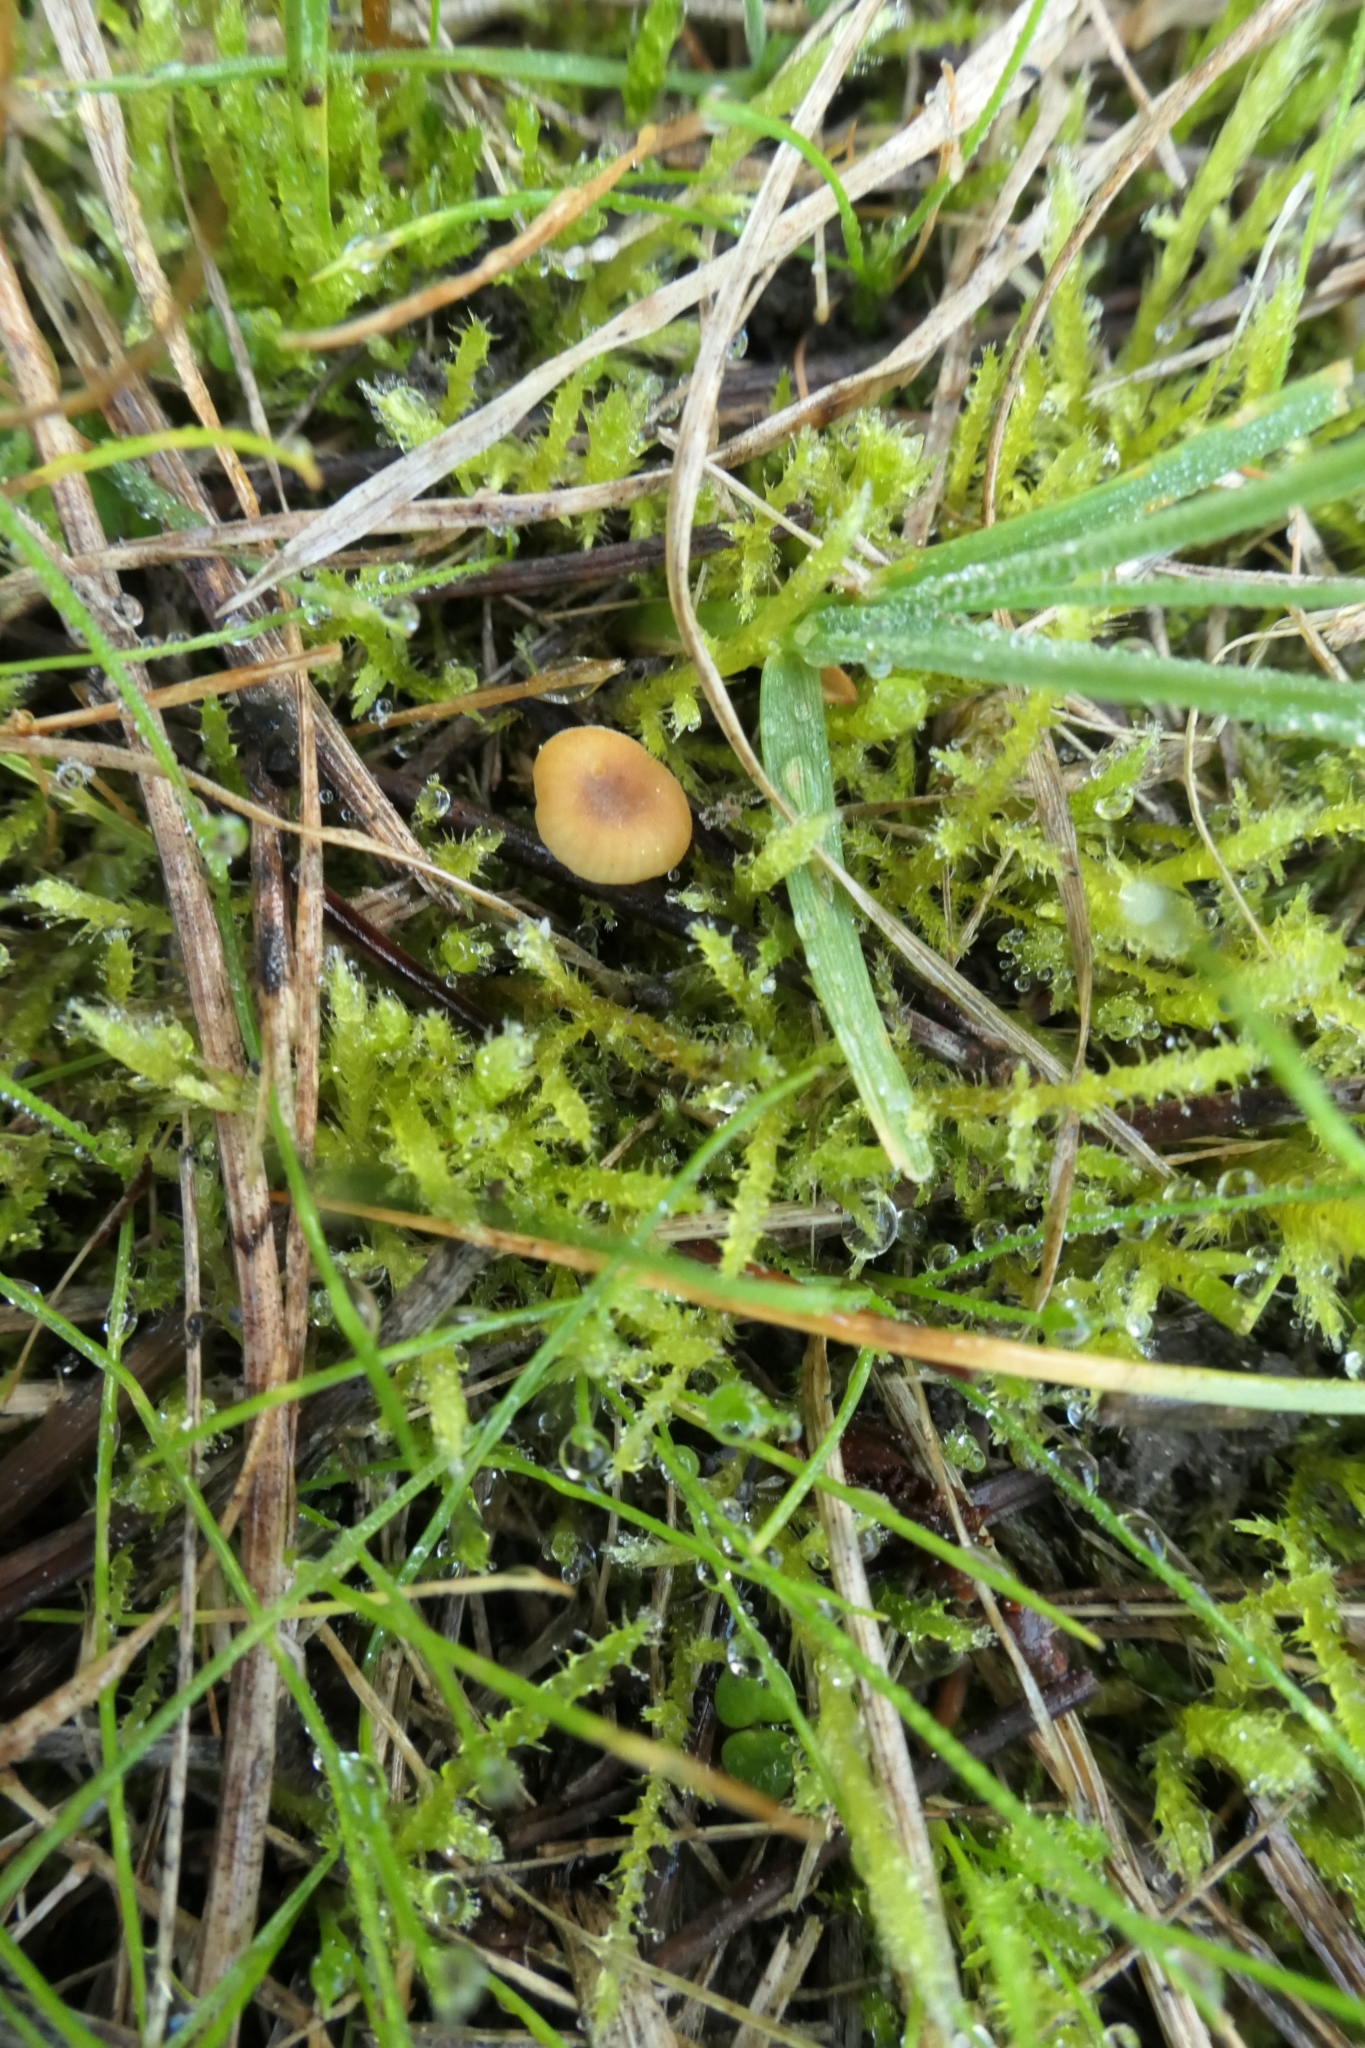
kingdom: Fungi
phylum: Basidiomycota
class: Agaricomycetes
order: Hymenochaetales
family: Rickenellaceae
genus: Rickenella
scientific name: Rickenella swartzii
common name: Collared mosscap
